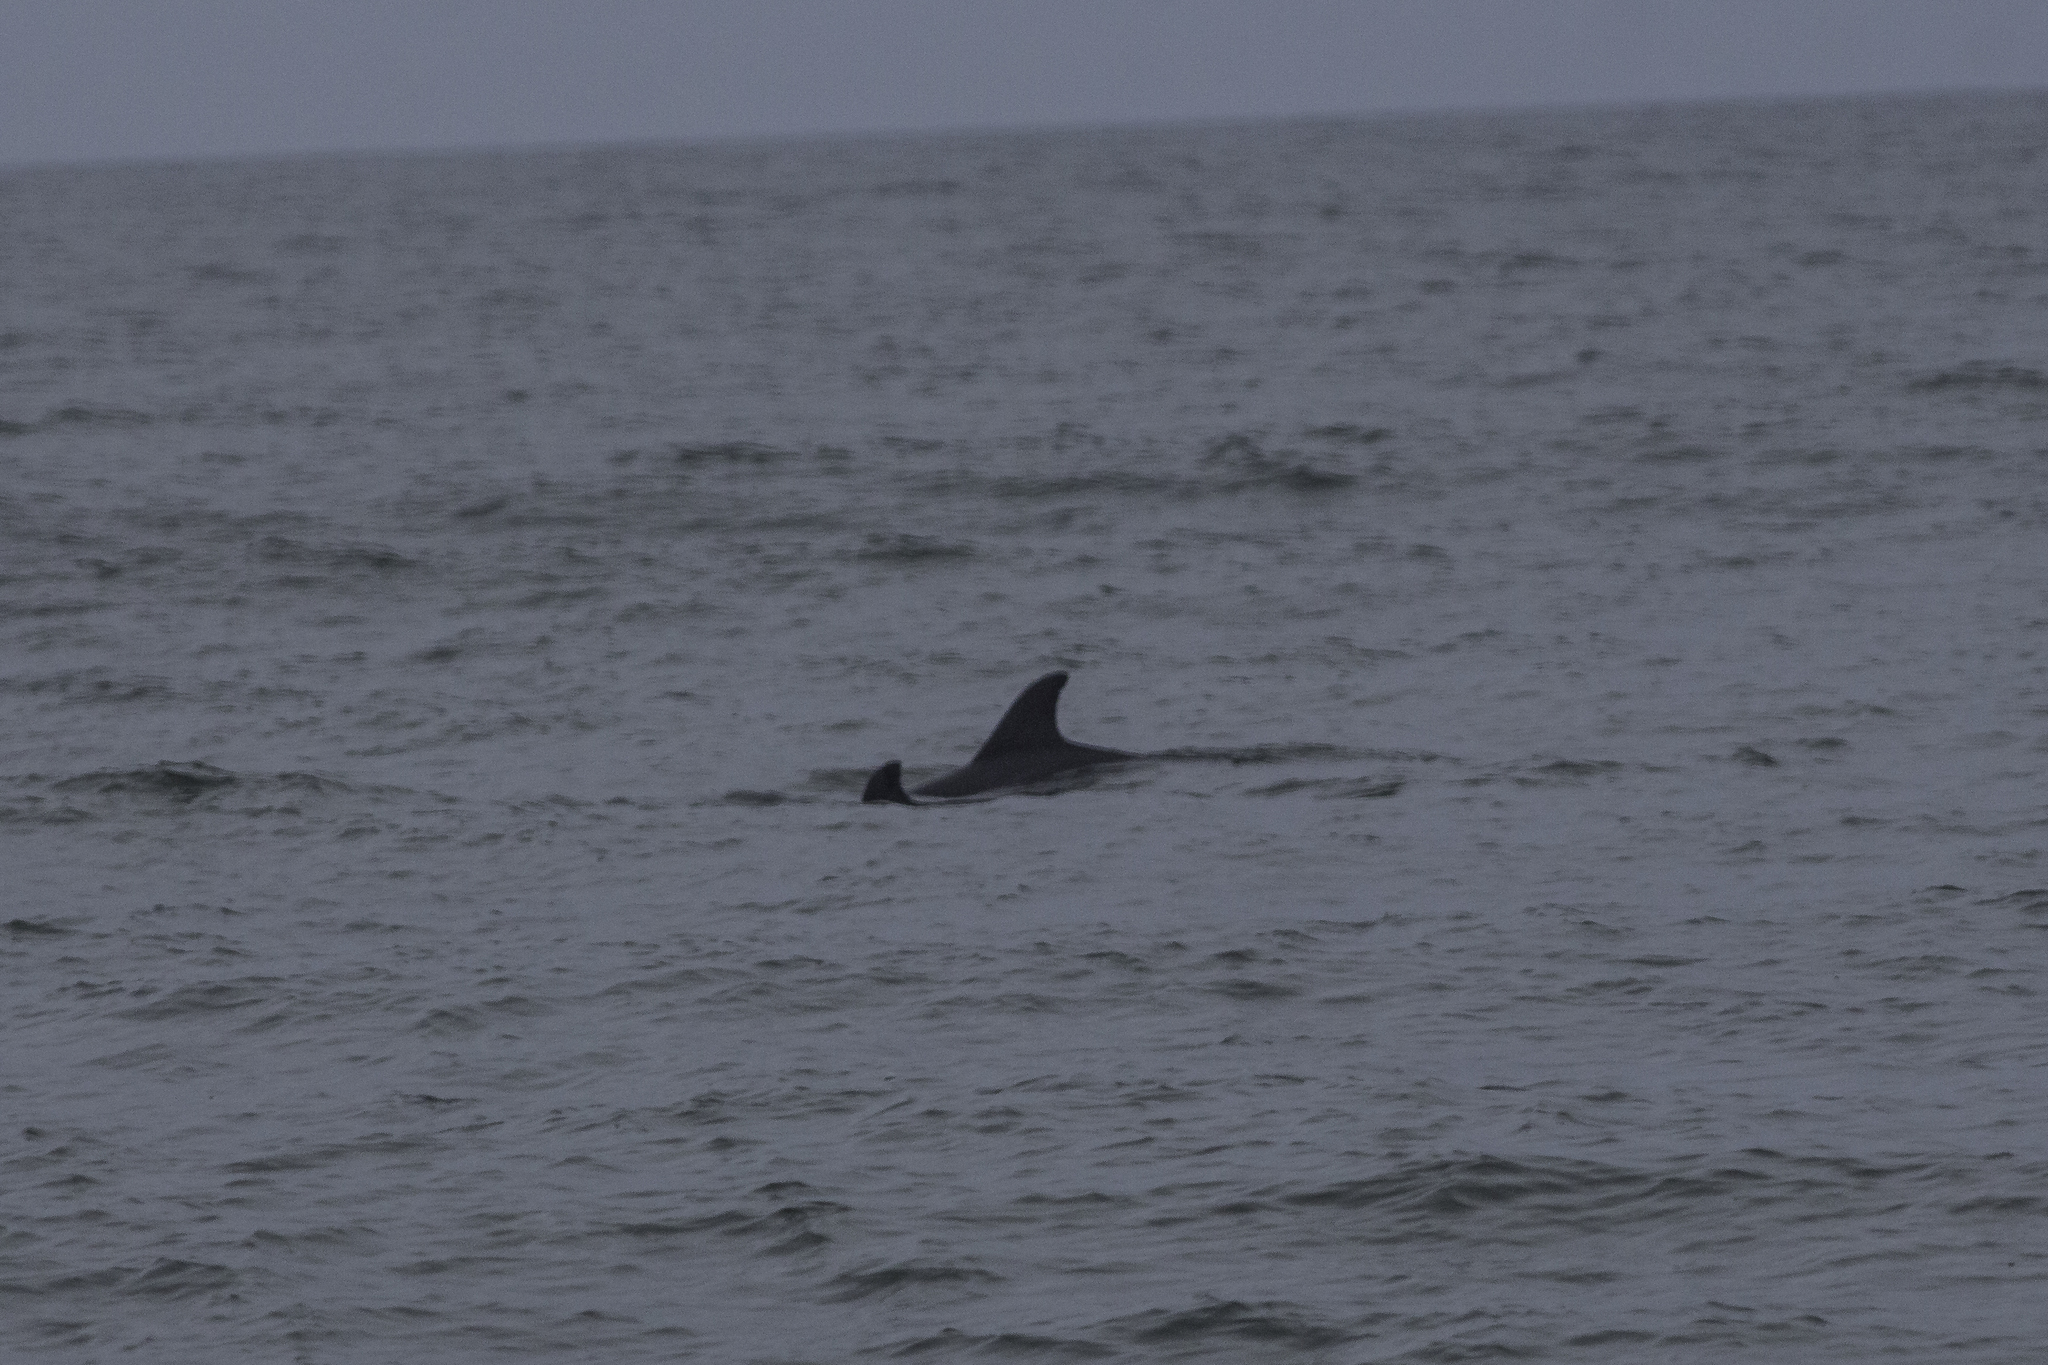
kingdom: Animalia
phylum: Chordata
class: Mammalia
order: Cetacea
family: Delphinidae
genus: Tursiops
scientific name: Tursiops truncatus
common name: Bottlenose dolphin
